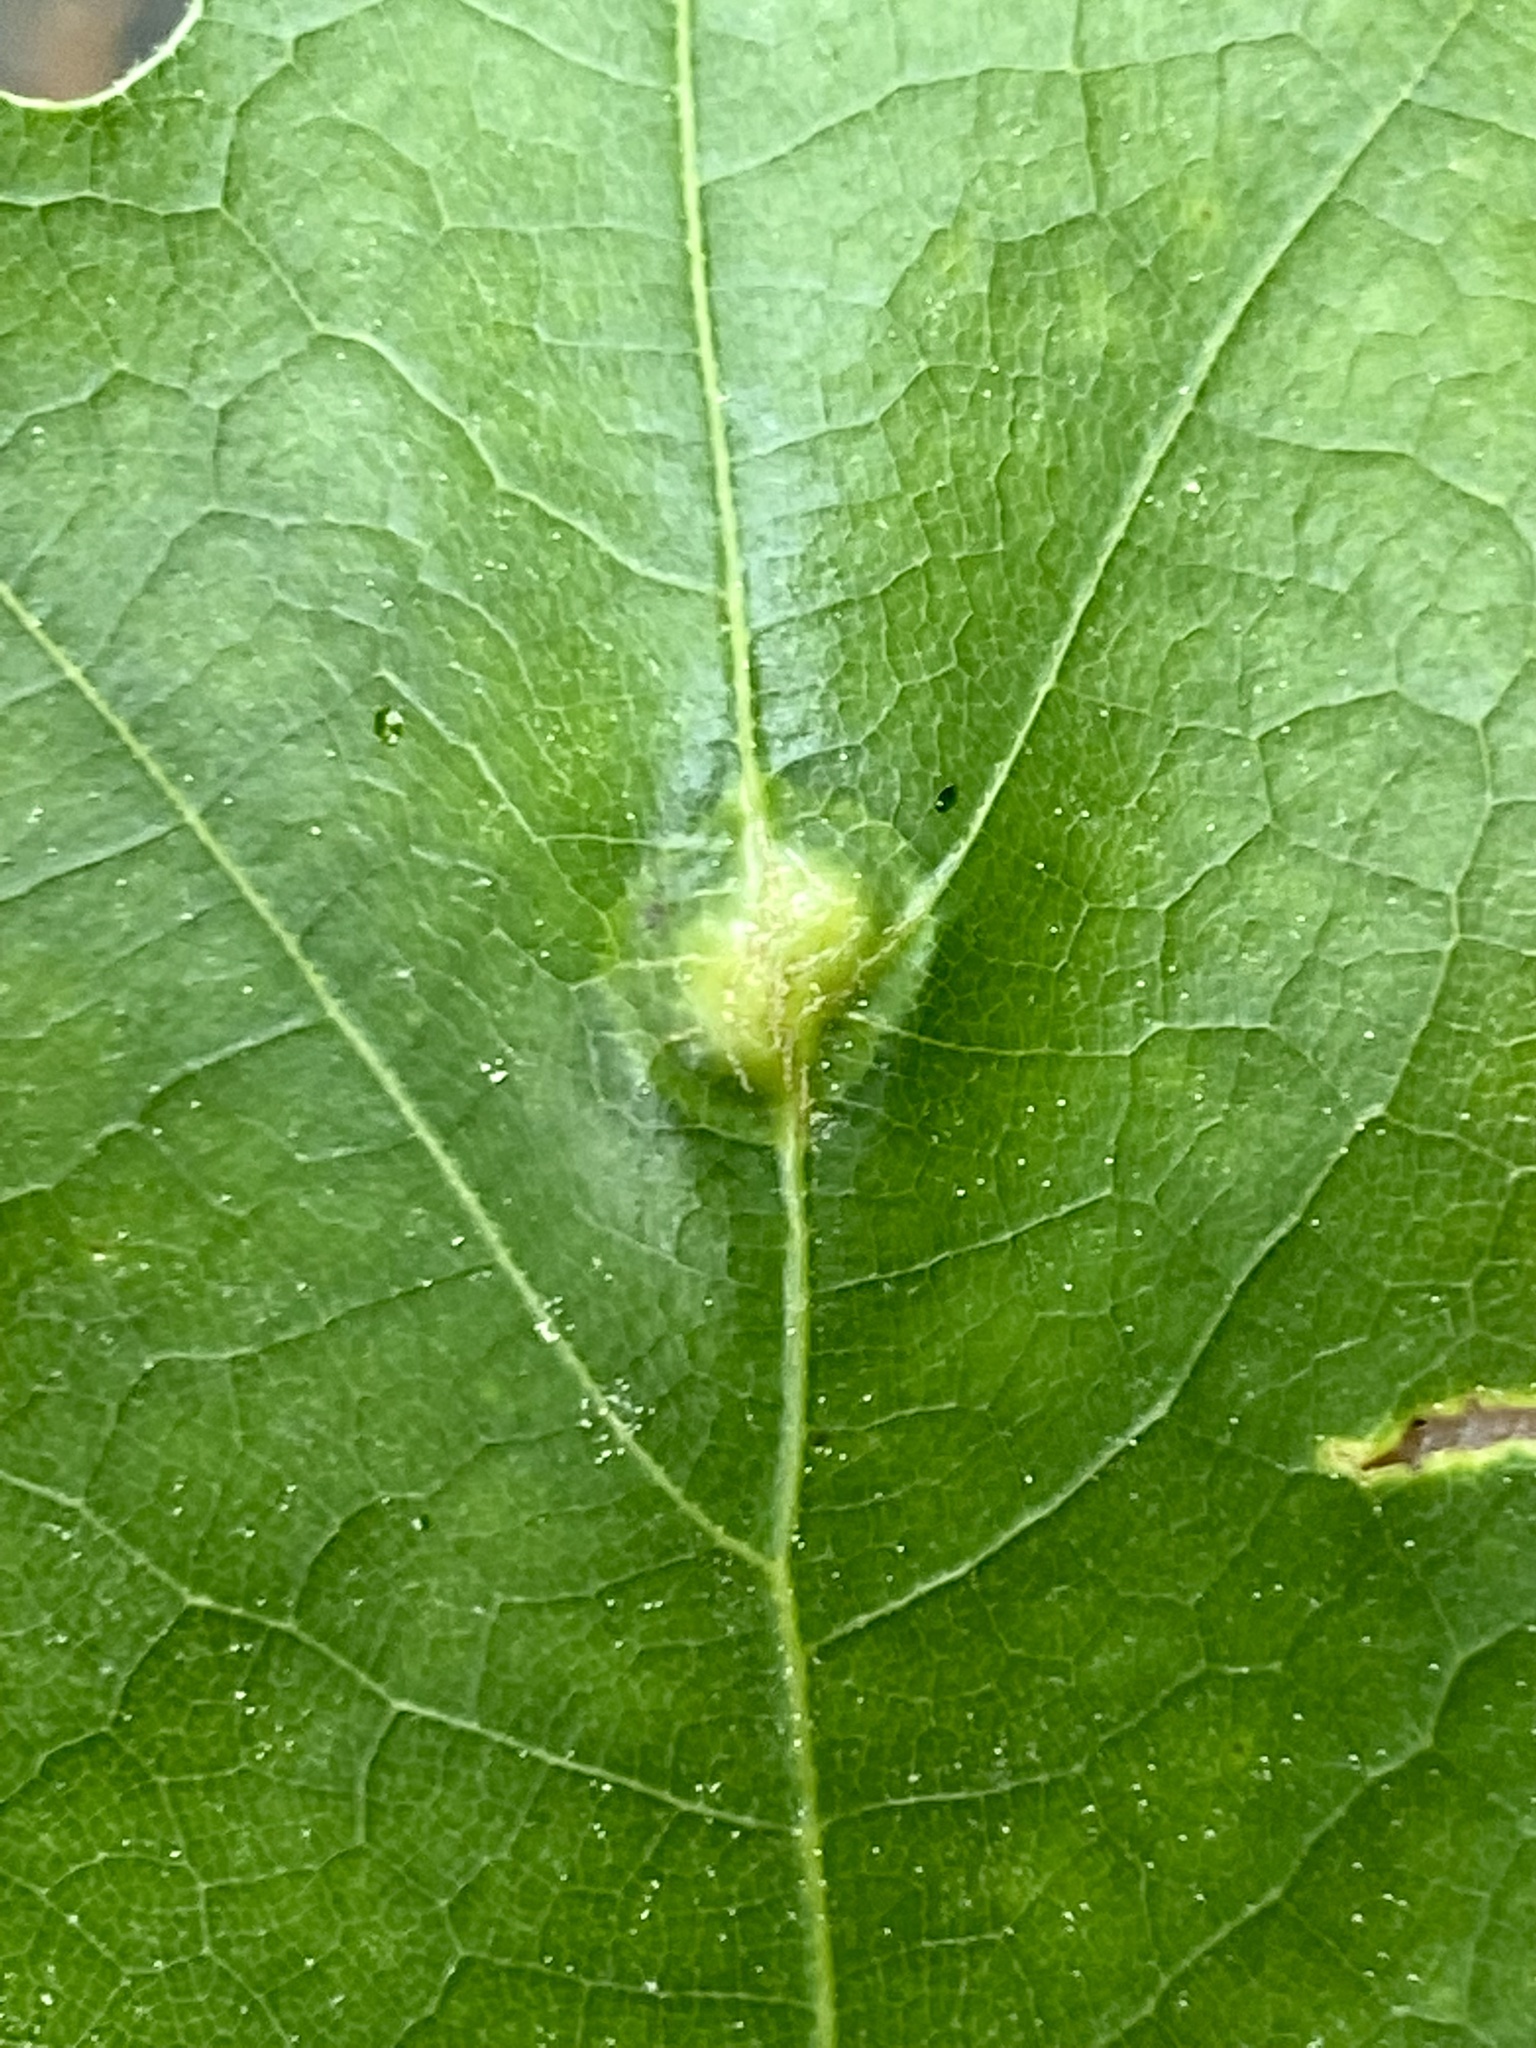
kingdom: Animalia
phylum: Arthropoda
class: Insecta
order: Diptera
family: Cecidomyiidae
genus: Polystepha
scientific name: Polystepha pilulae
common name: Oak leaf gall midge
